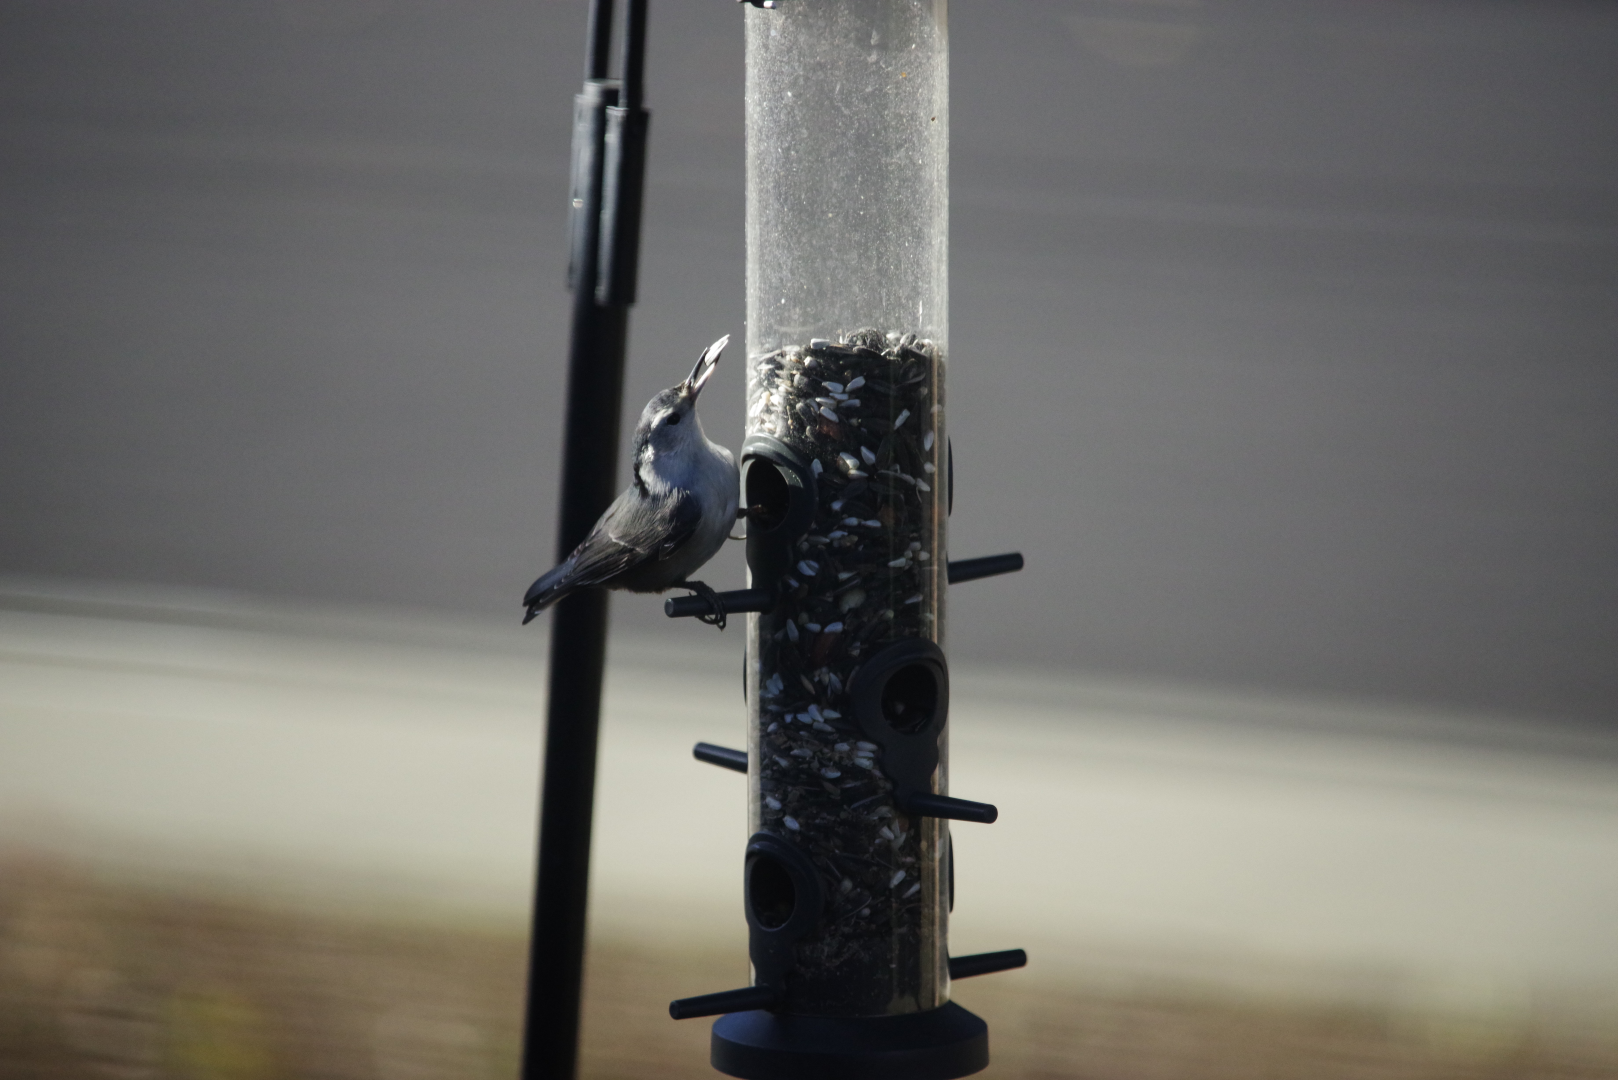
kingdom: Animalia
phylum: Chordata
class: Aves
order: Passeriformes
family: Sittidae
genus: Sitta
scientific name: Sitta carolinensis
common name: White-breasted nuthatch
